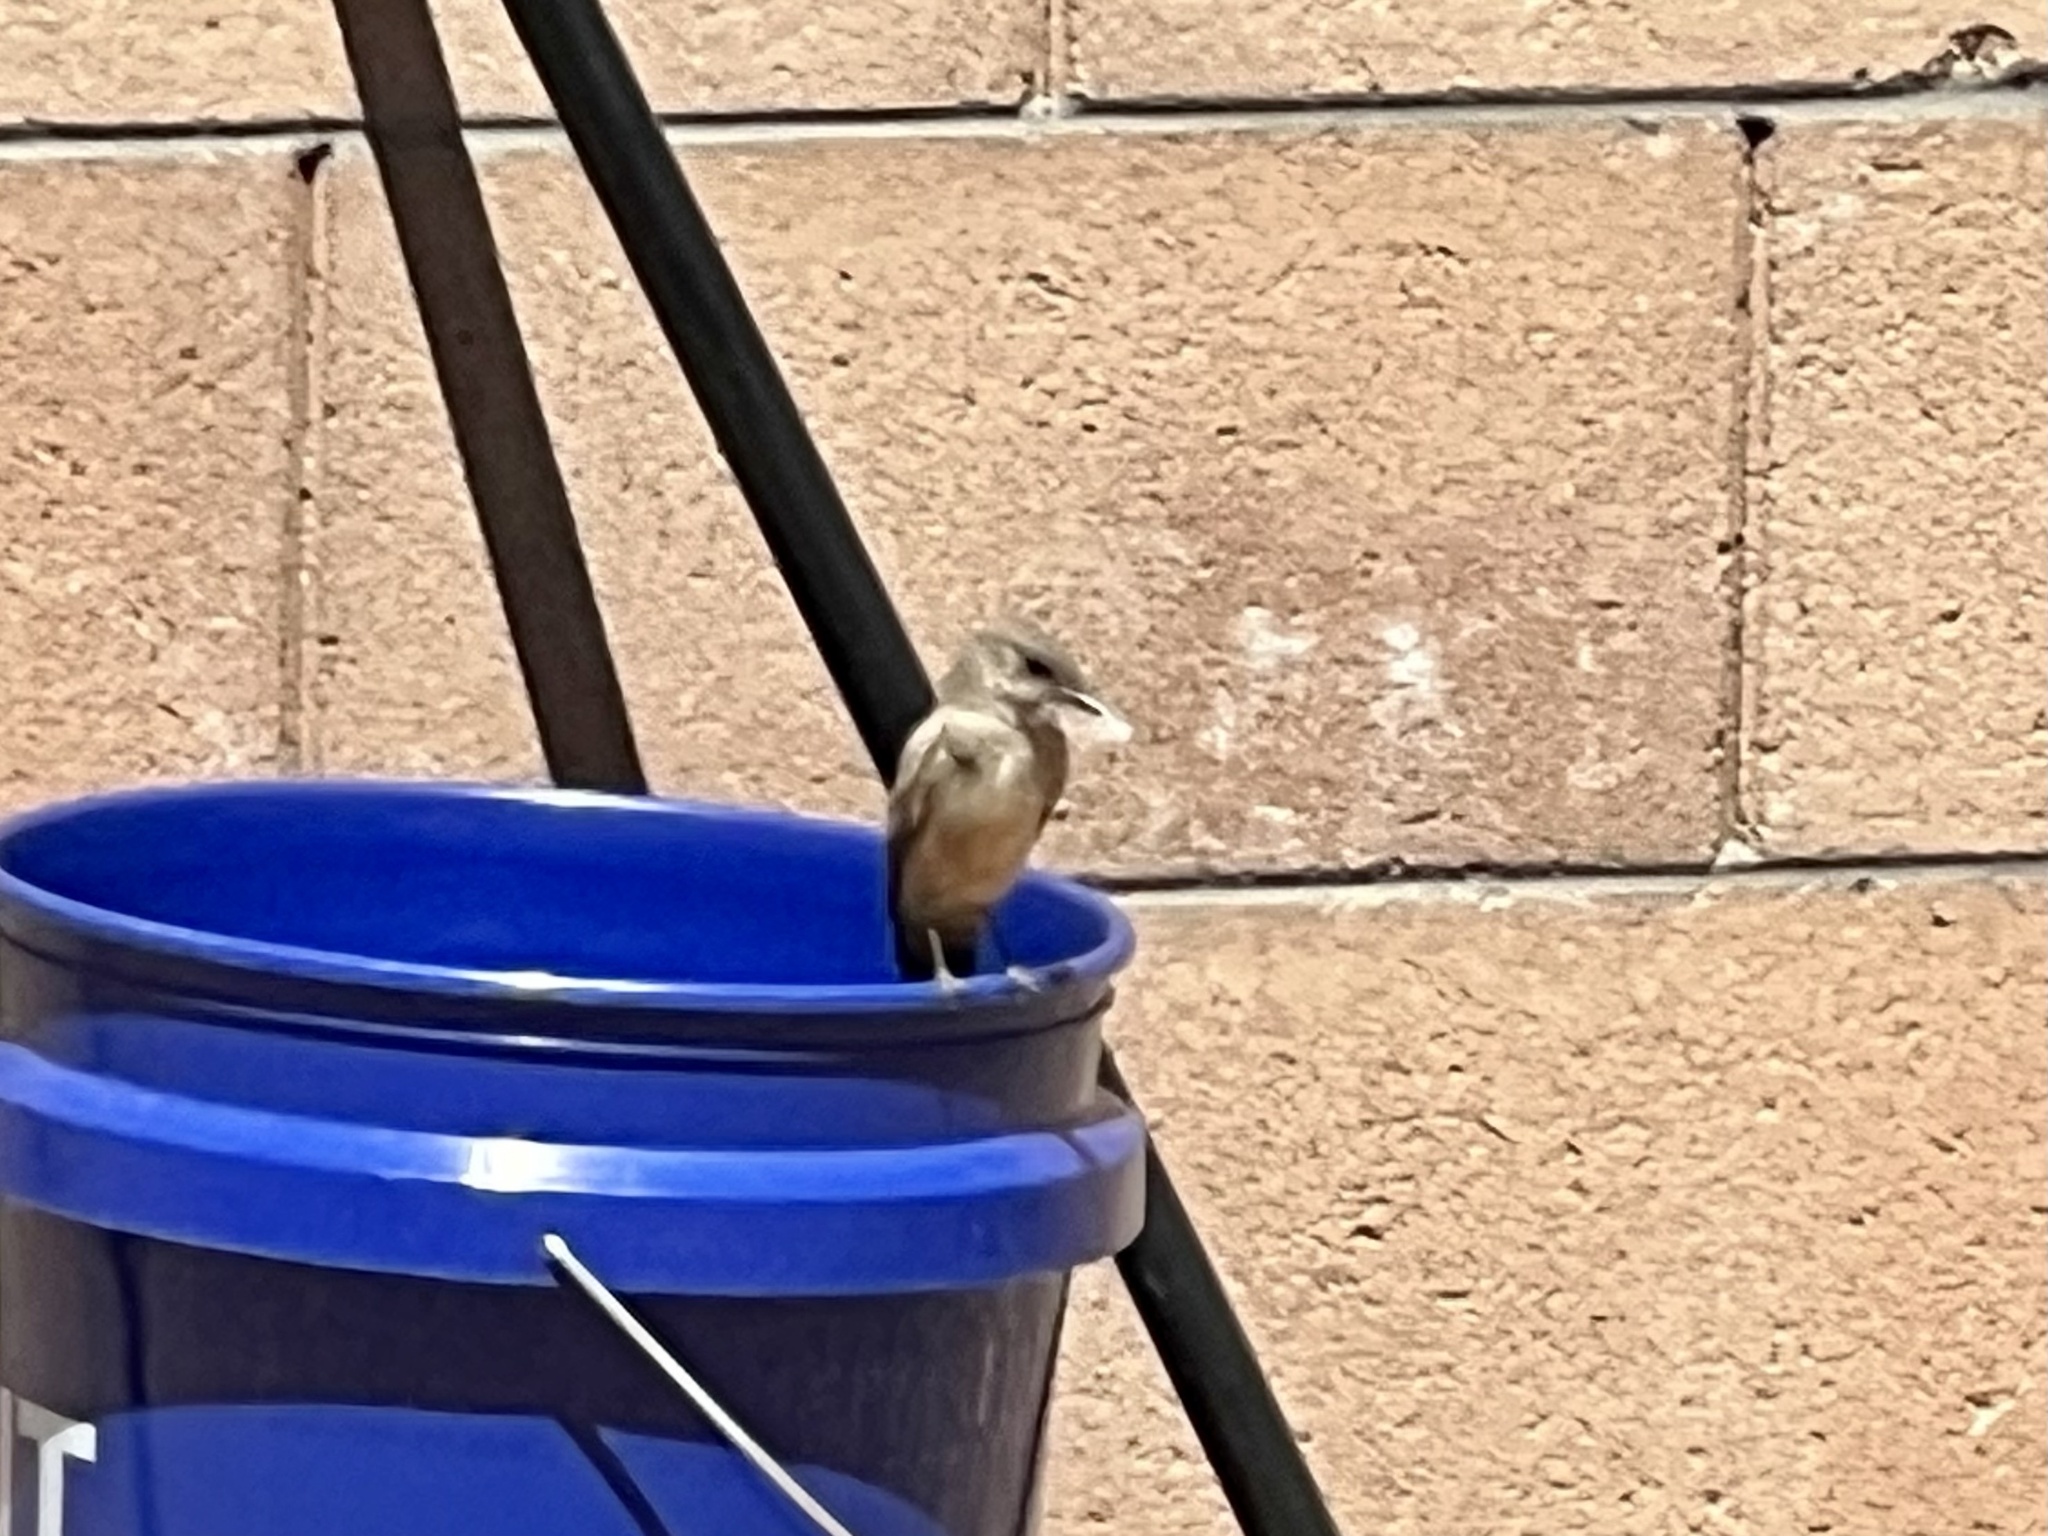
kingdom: Animalia
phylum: Chordata
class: Aves
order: Passeriformes
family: Tyrannidae
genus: Sayornis
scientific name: Sayornis saya
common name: Say's phoebe
